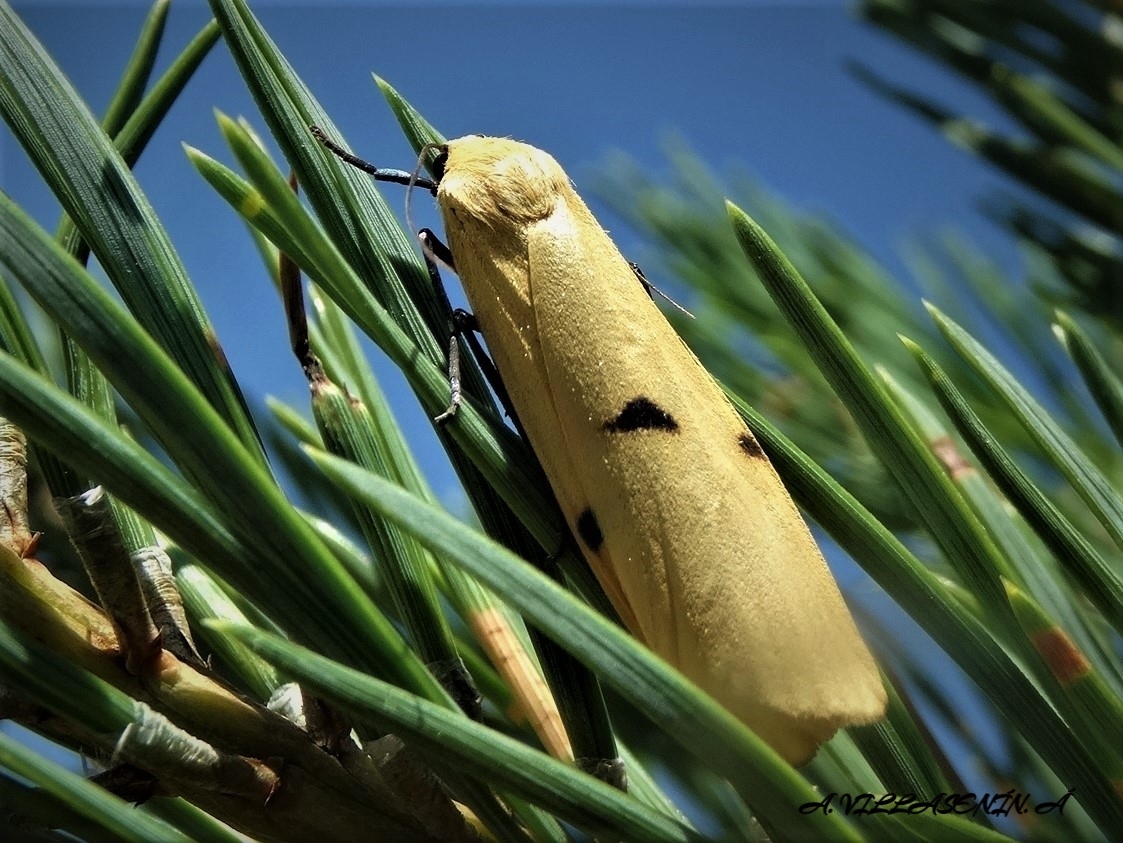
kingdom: Animalia
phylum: Arthropoda
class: Insecta
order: Lepidoptera
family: Erebidae
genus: Lithosia
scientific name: Lithosia quadra
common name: Four-spotted footman
